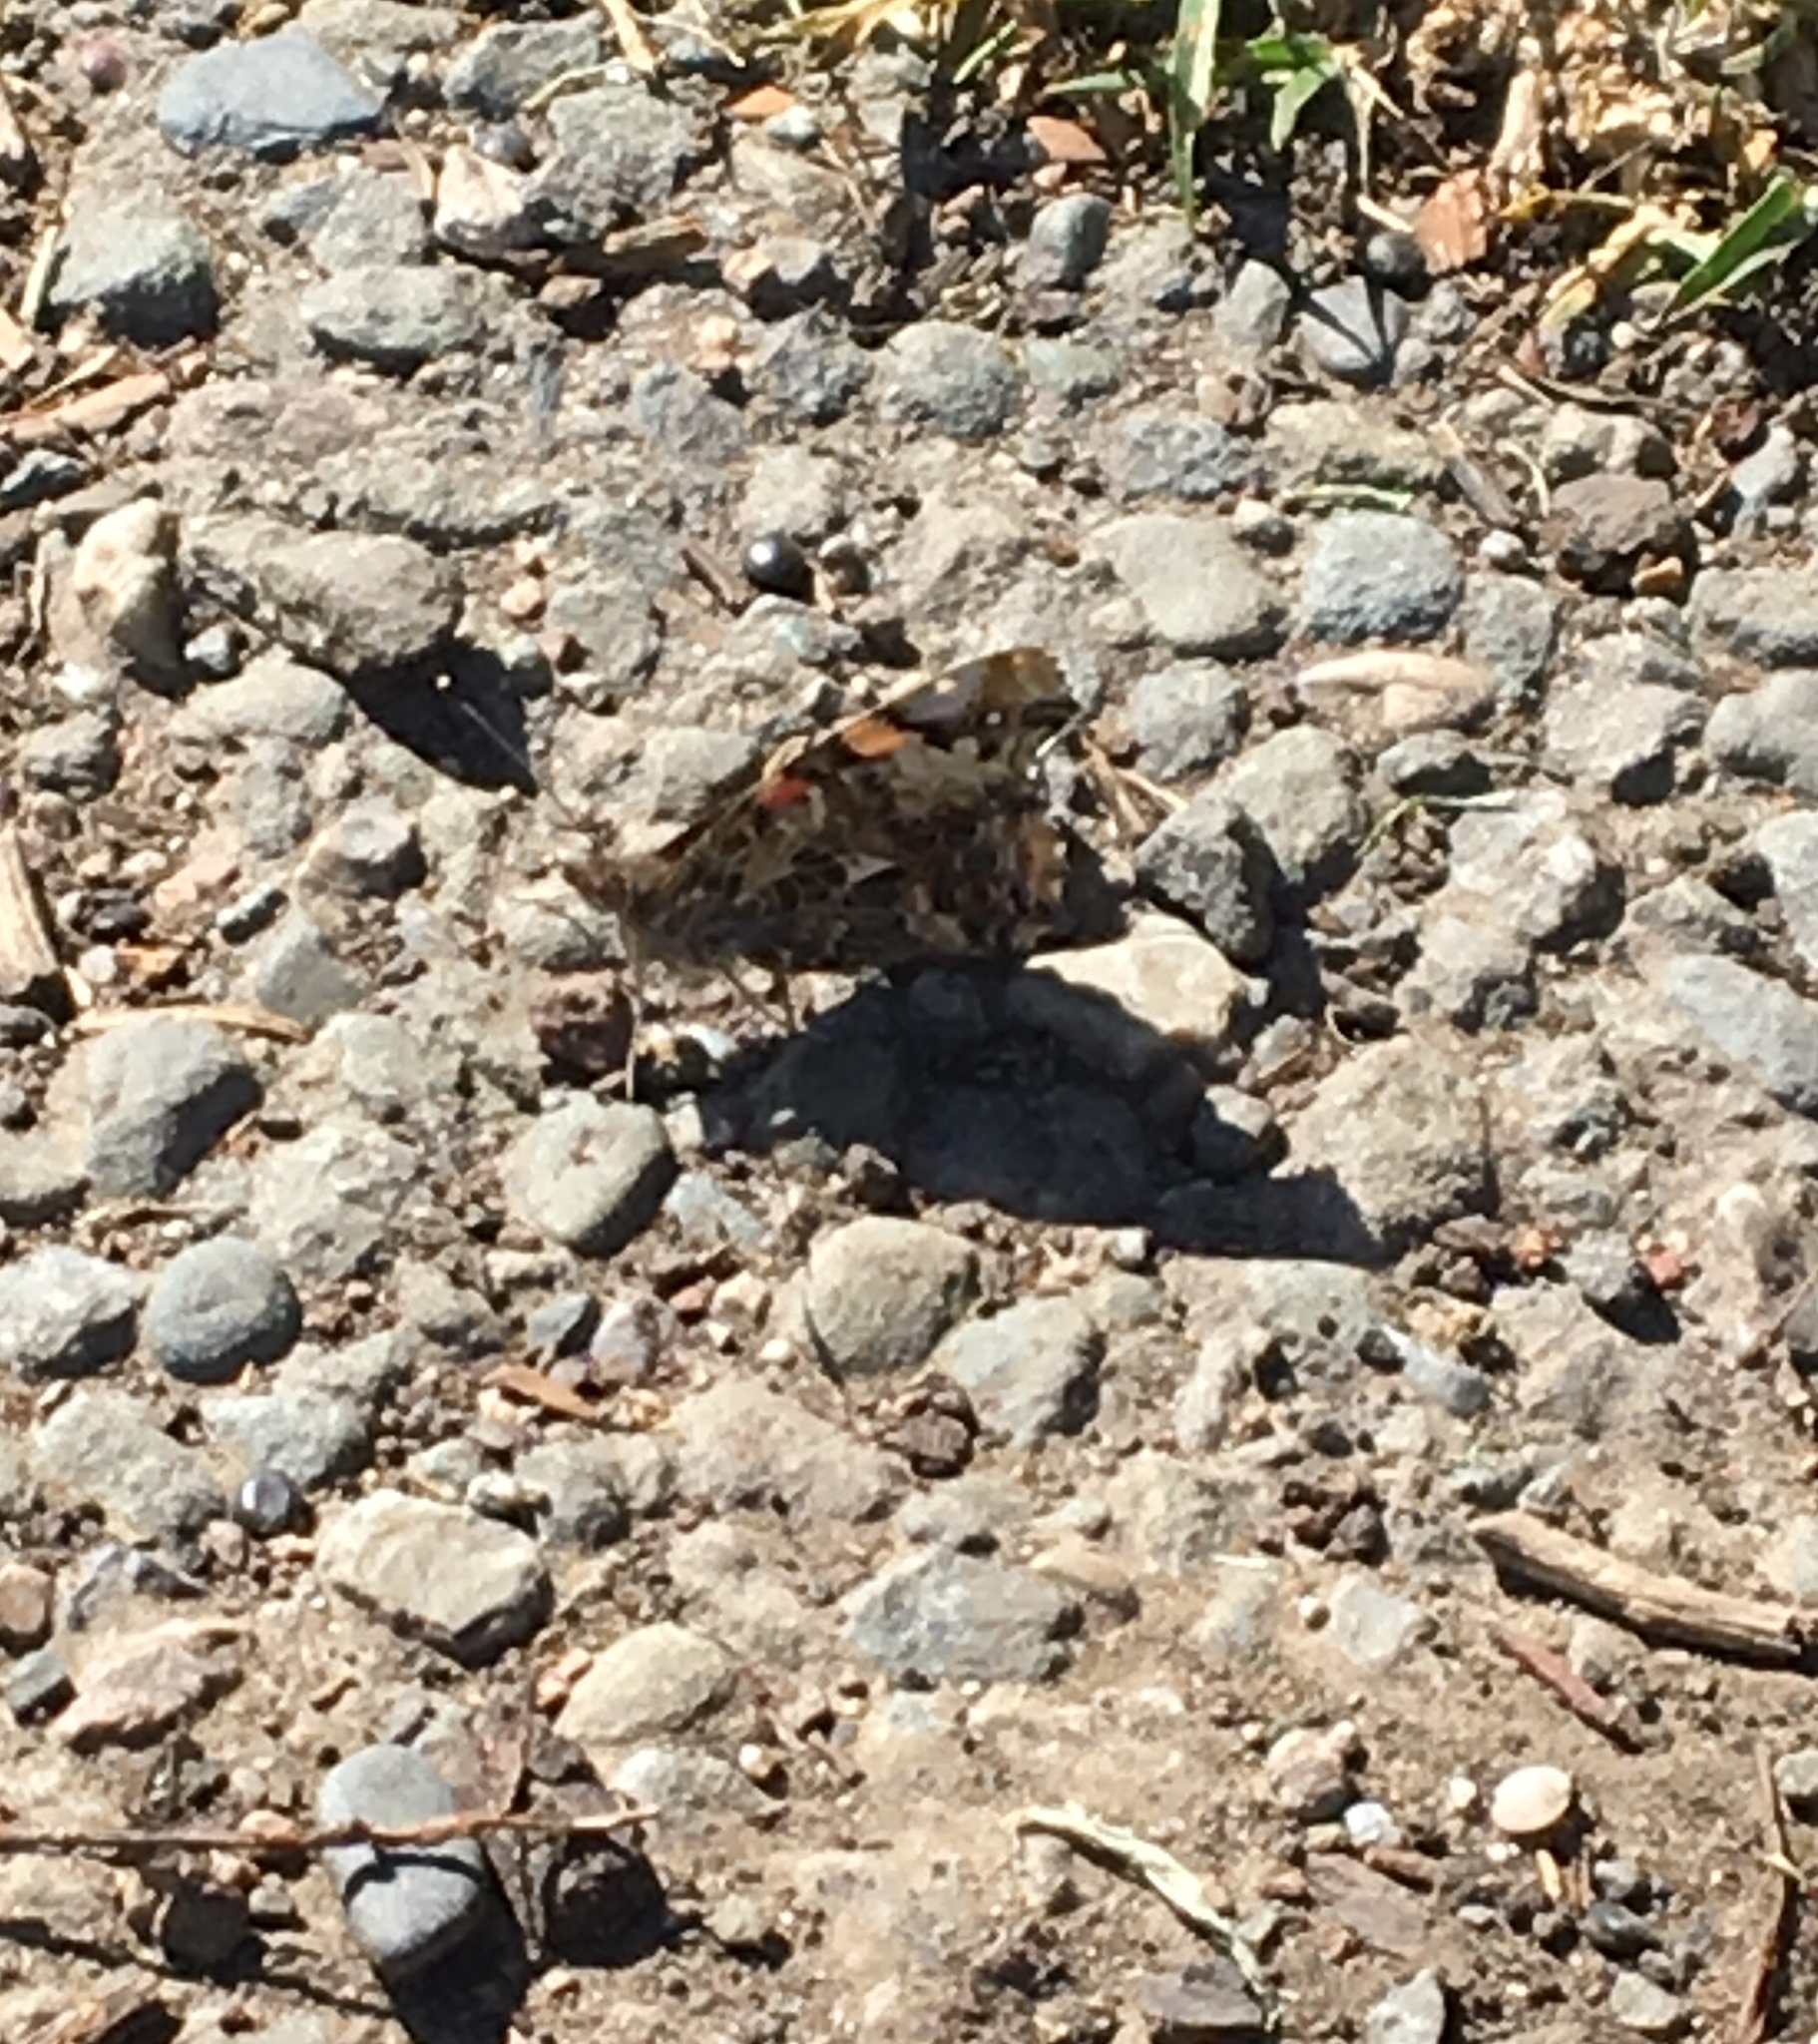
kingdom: Animalia
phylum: Arthropoda
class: Insecta
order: Lepidoptera
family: Nymphalidae
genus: Vanessa
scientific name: Vanessa annabella
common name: West coast lady
